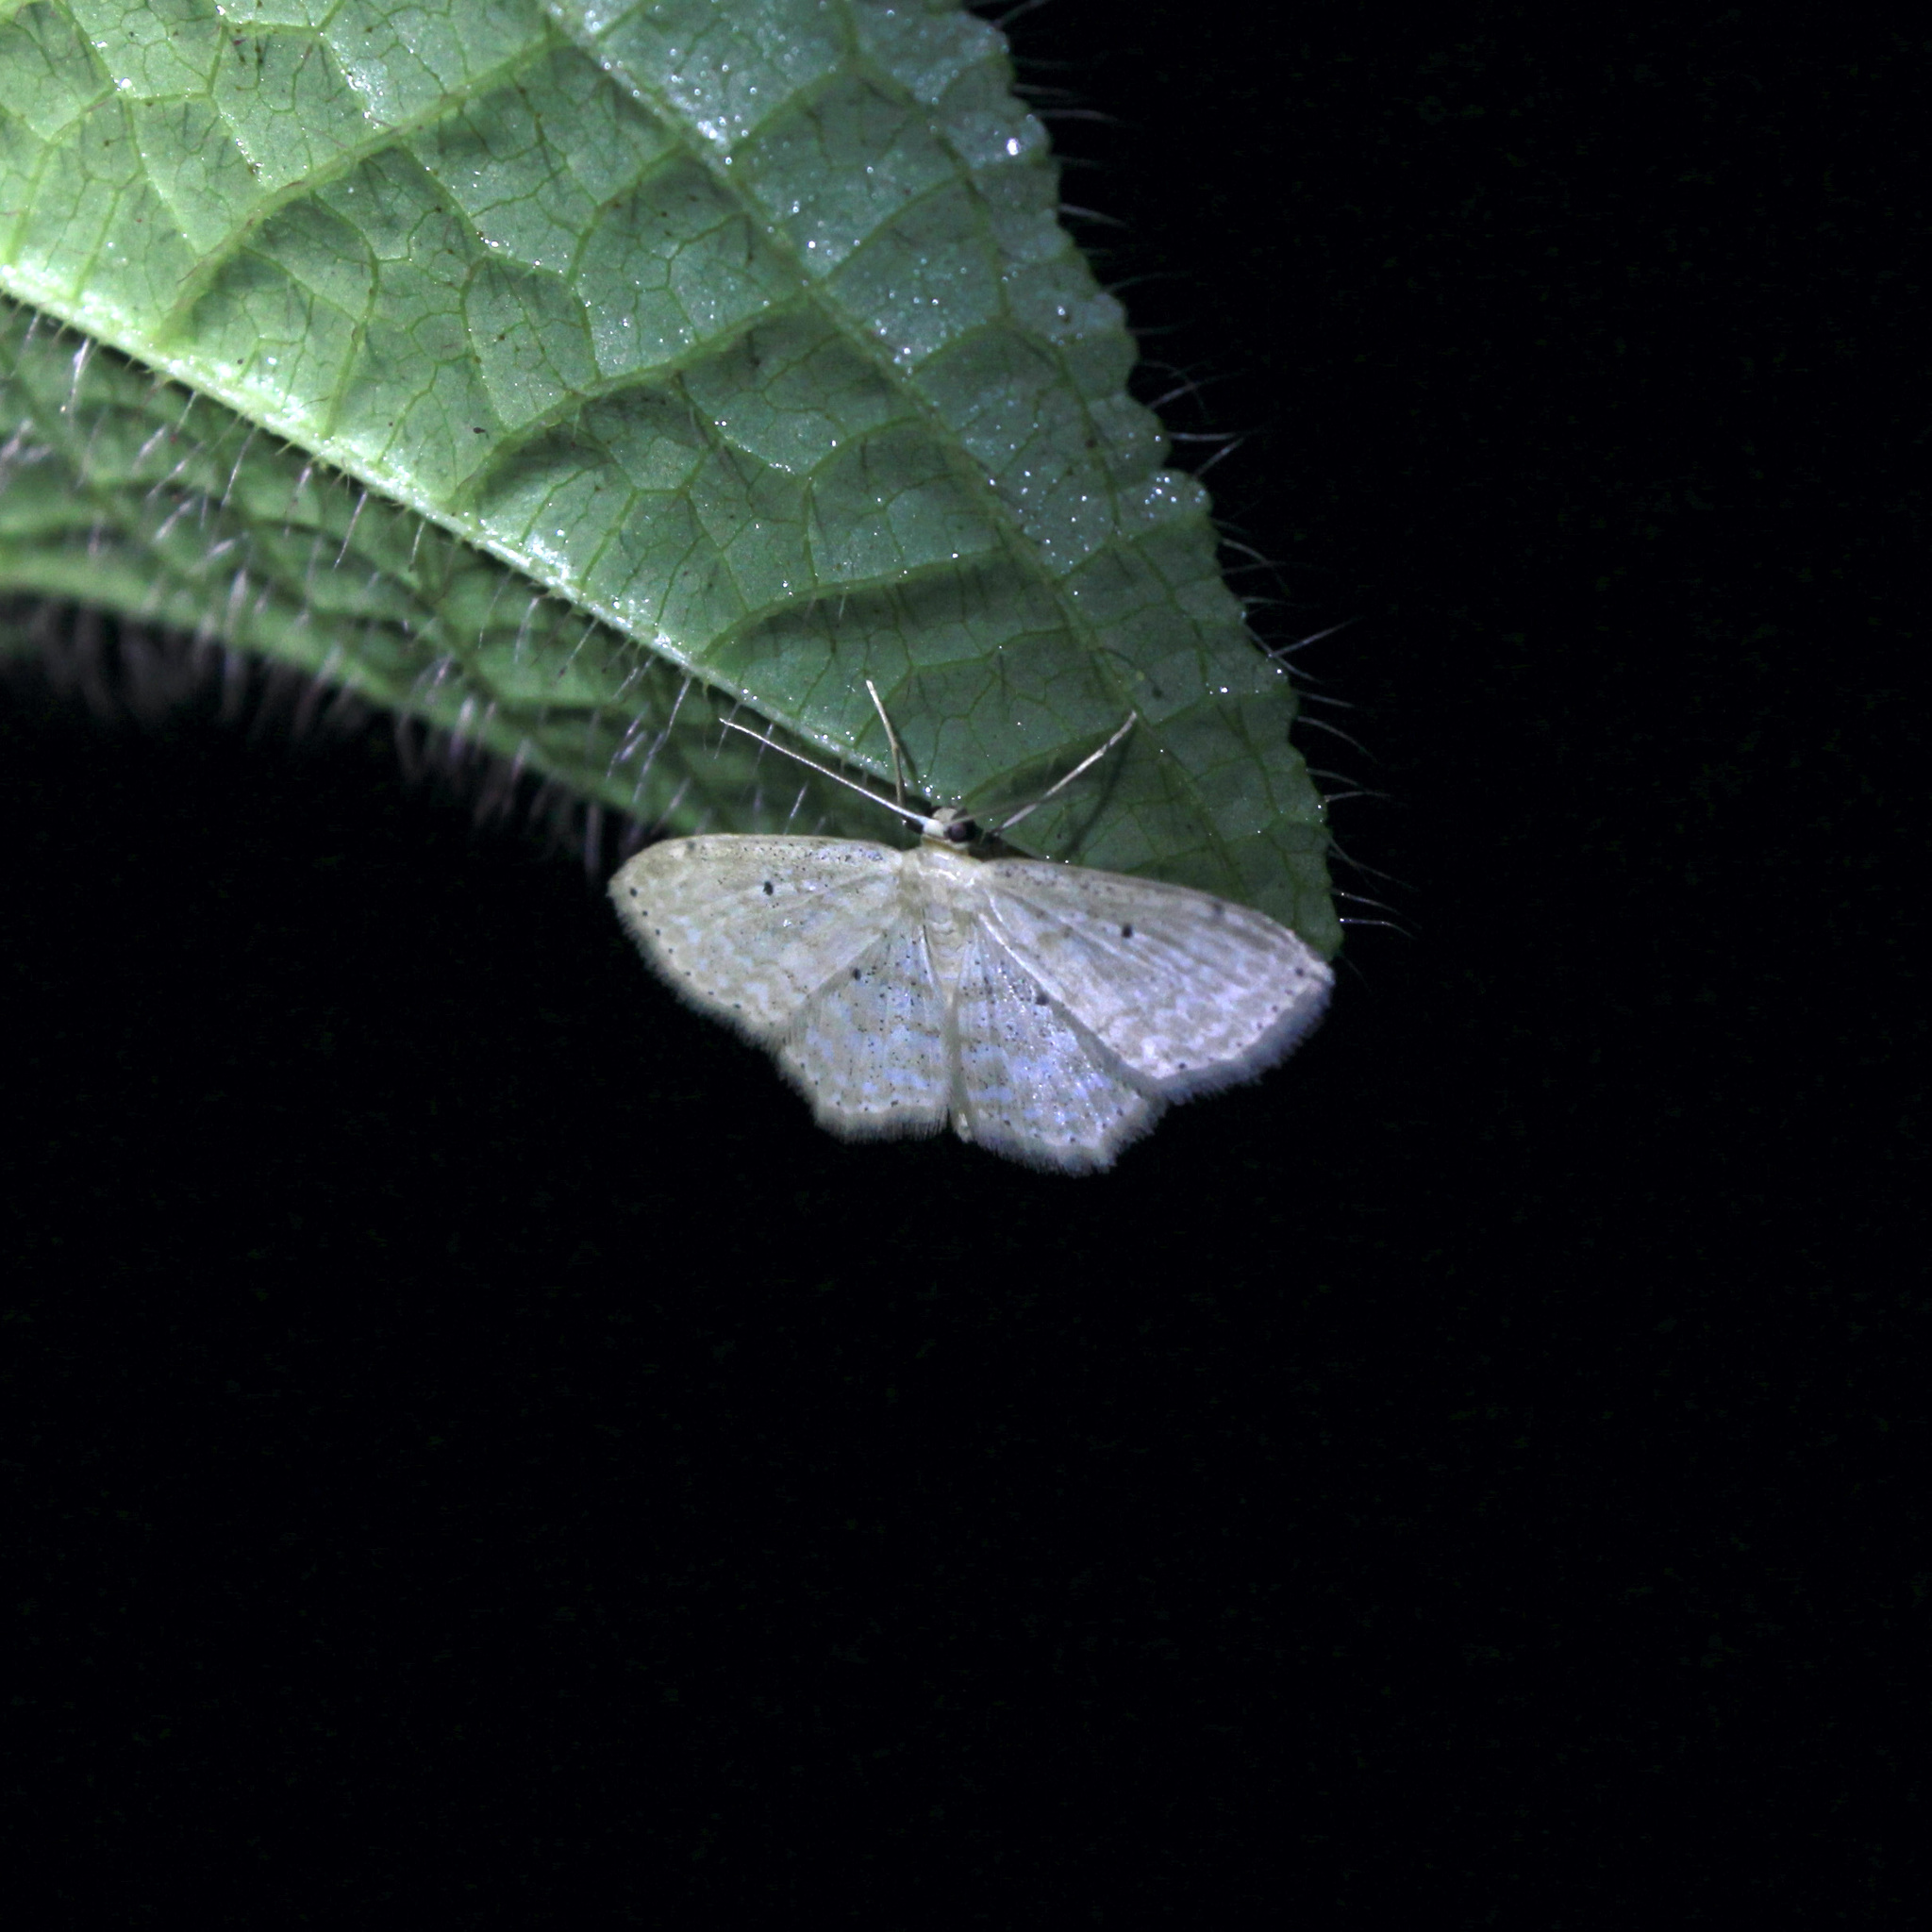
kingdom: Animalia
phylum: Arthropoda
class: Insecta
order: Lepidoptera
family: Geometridae
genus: Scopula
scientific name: Scopula apparitaria
